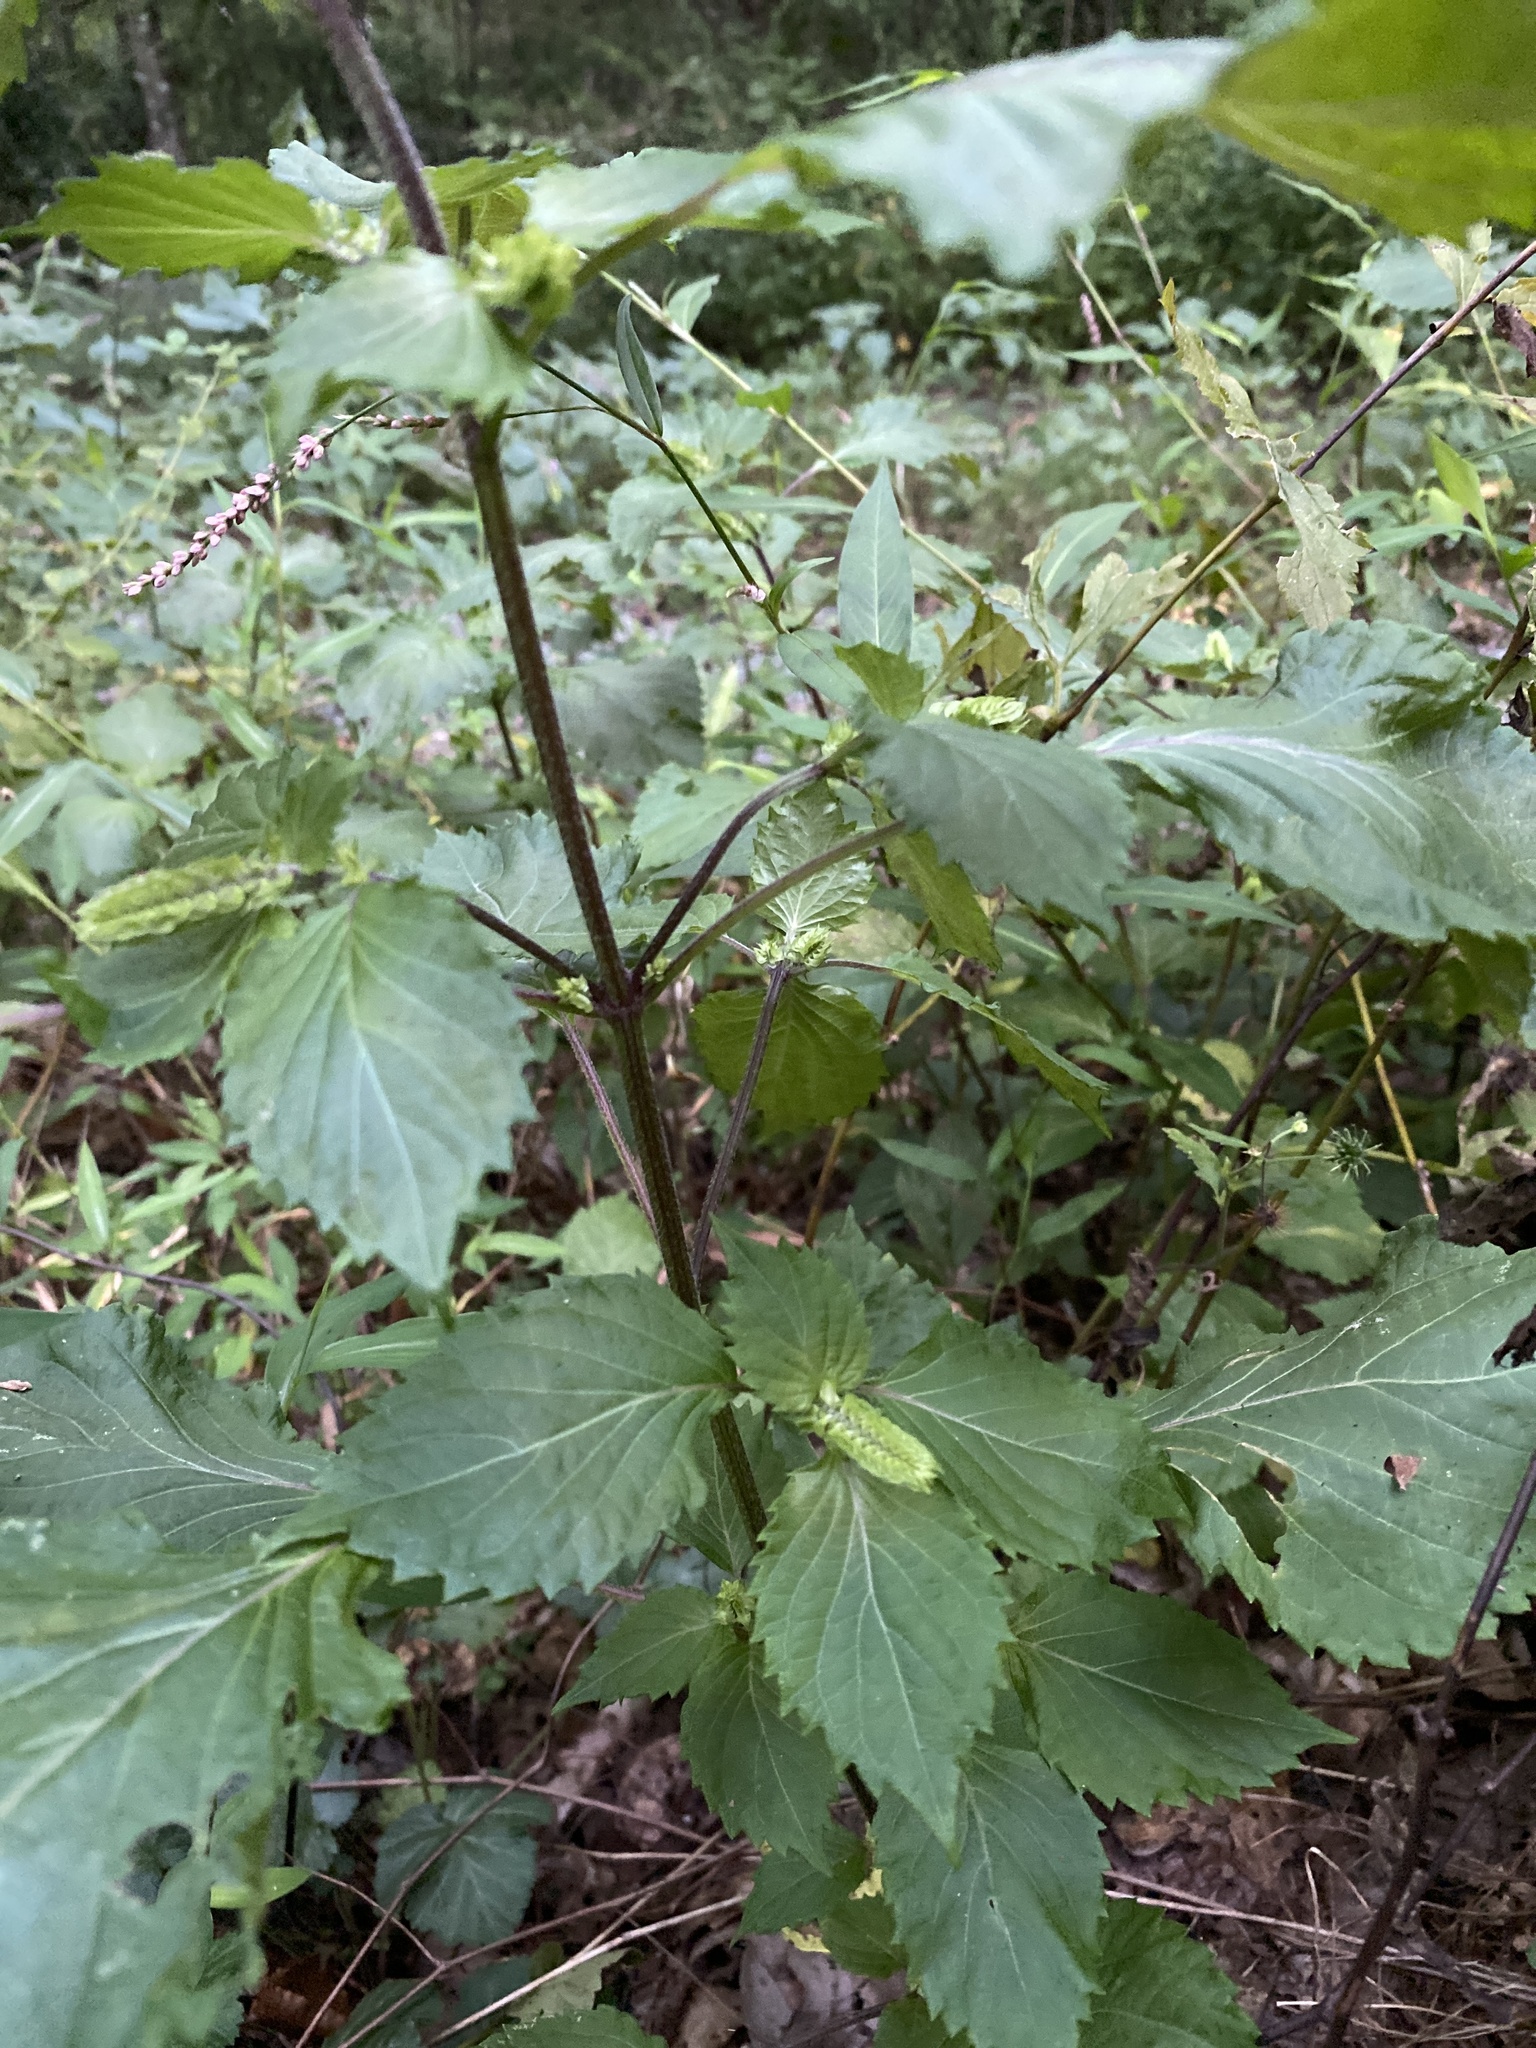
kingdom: Plantae
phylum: Tracheophyta
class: Magnoliopsida
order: Lamiales
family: Lamiaceae
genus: Perilla
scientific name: Perilla frutescens
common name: Perilla
